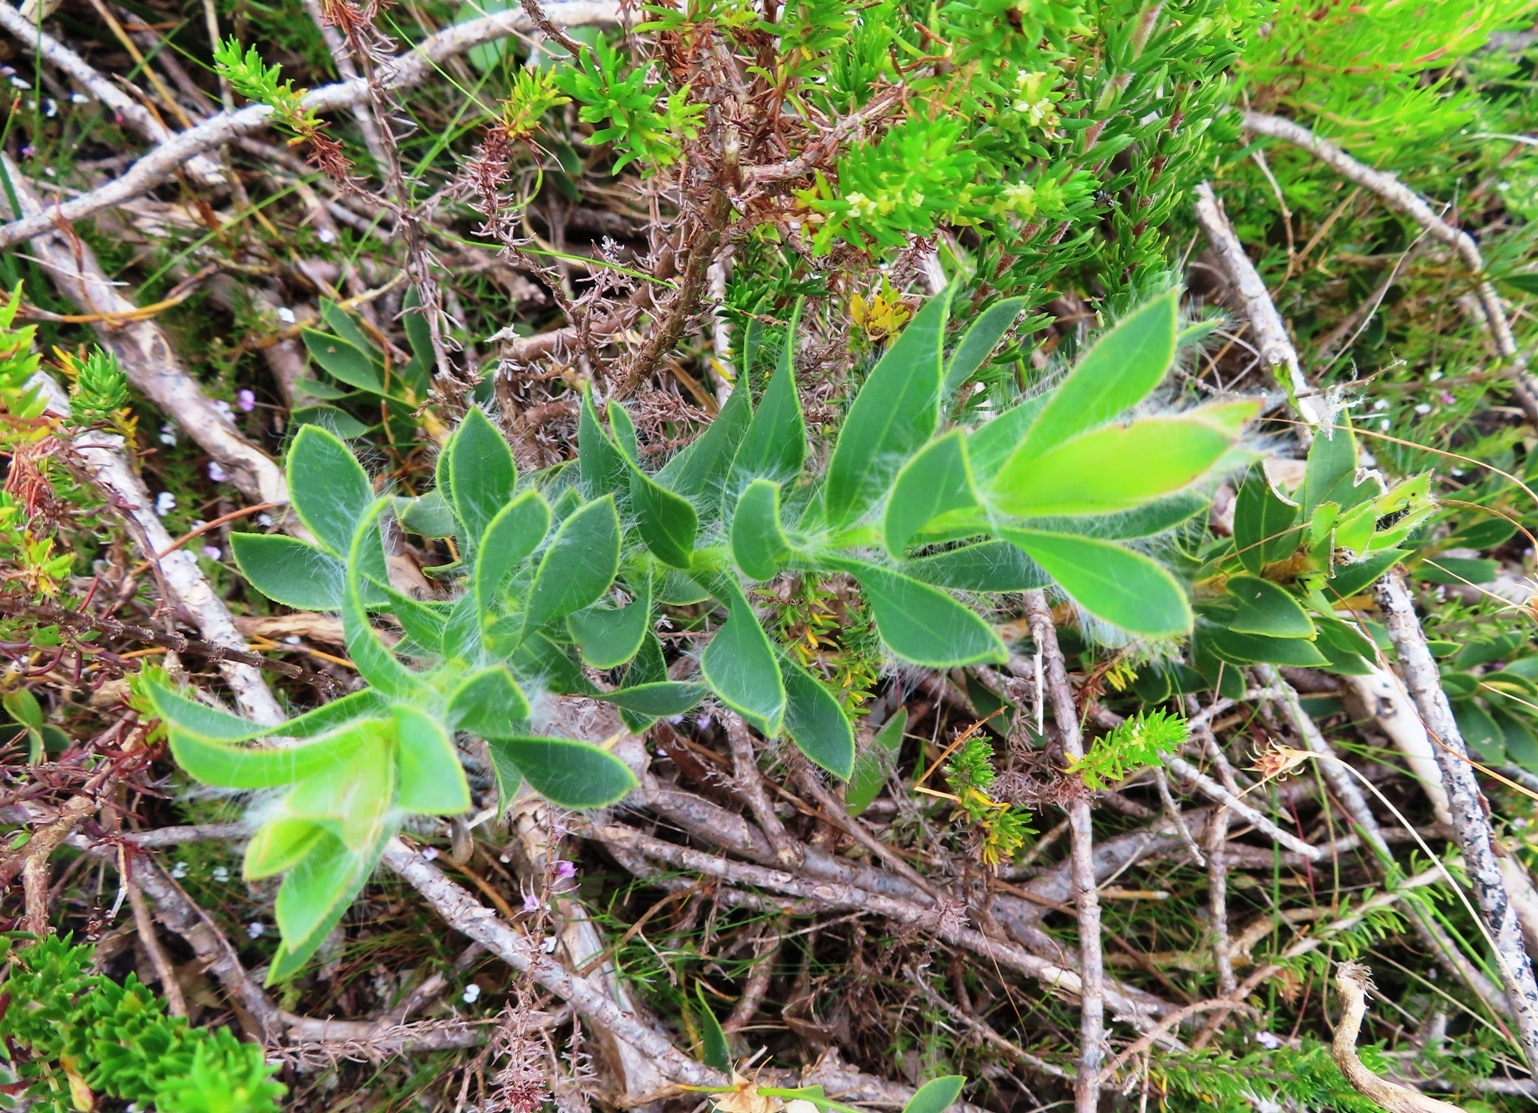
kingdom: Plantae
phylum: Tracheophyta
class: Magnoliopsida
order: Fabales
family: Fabaceae
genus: Liparia
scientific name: Liparia splendens
